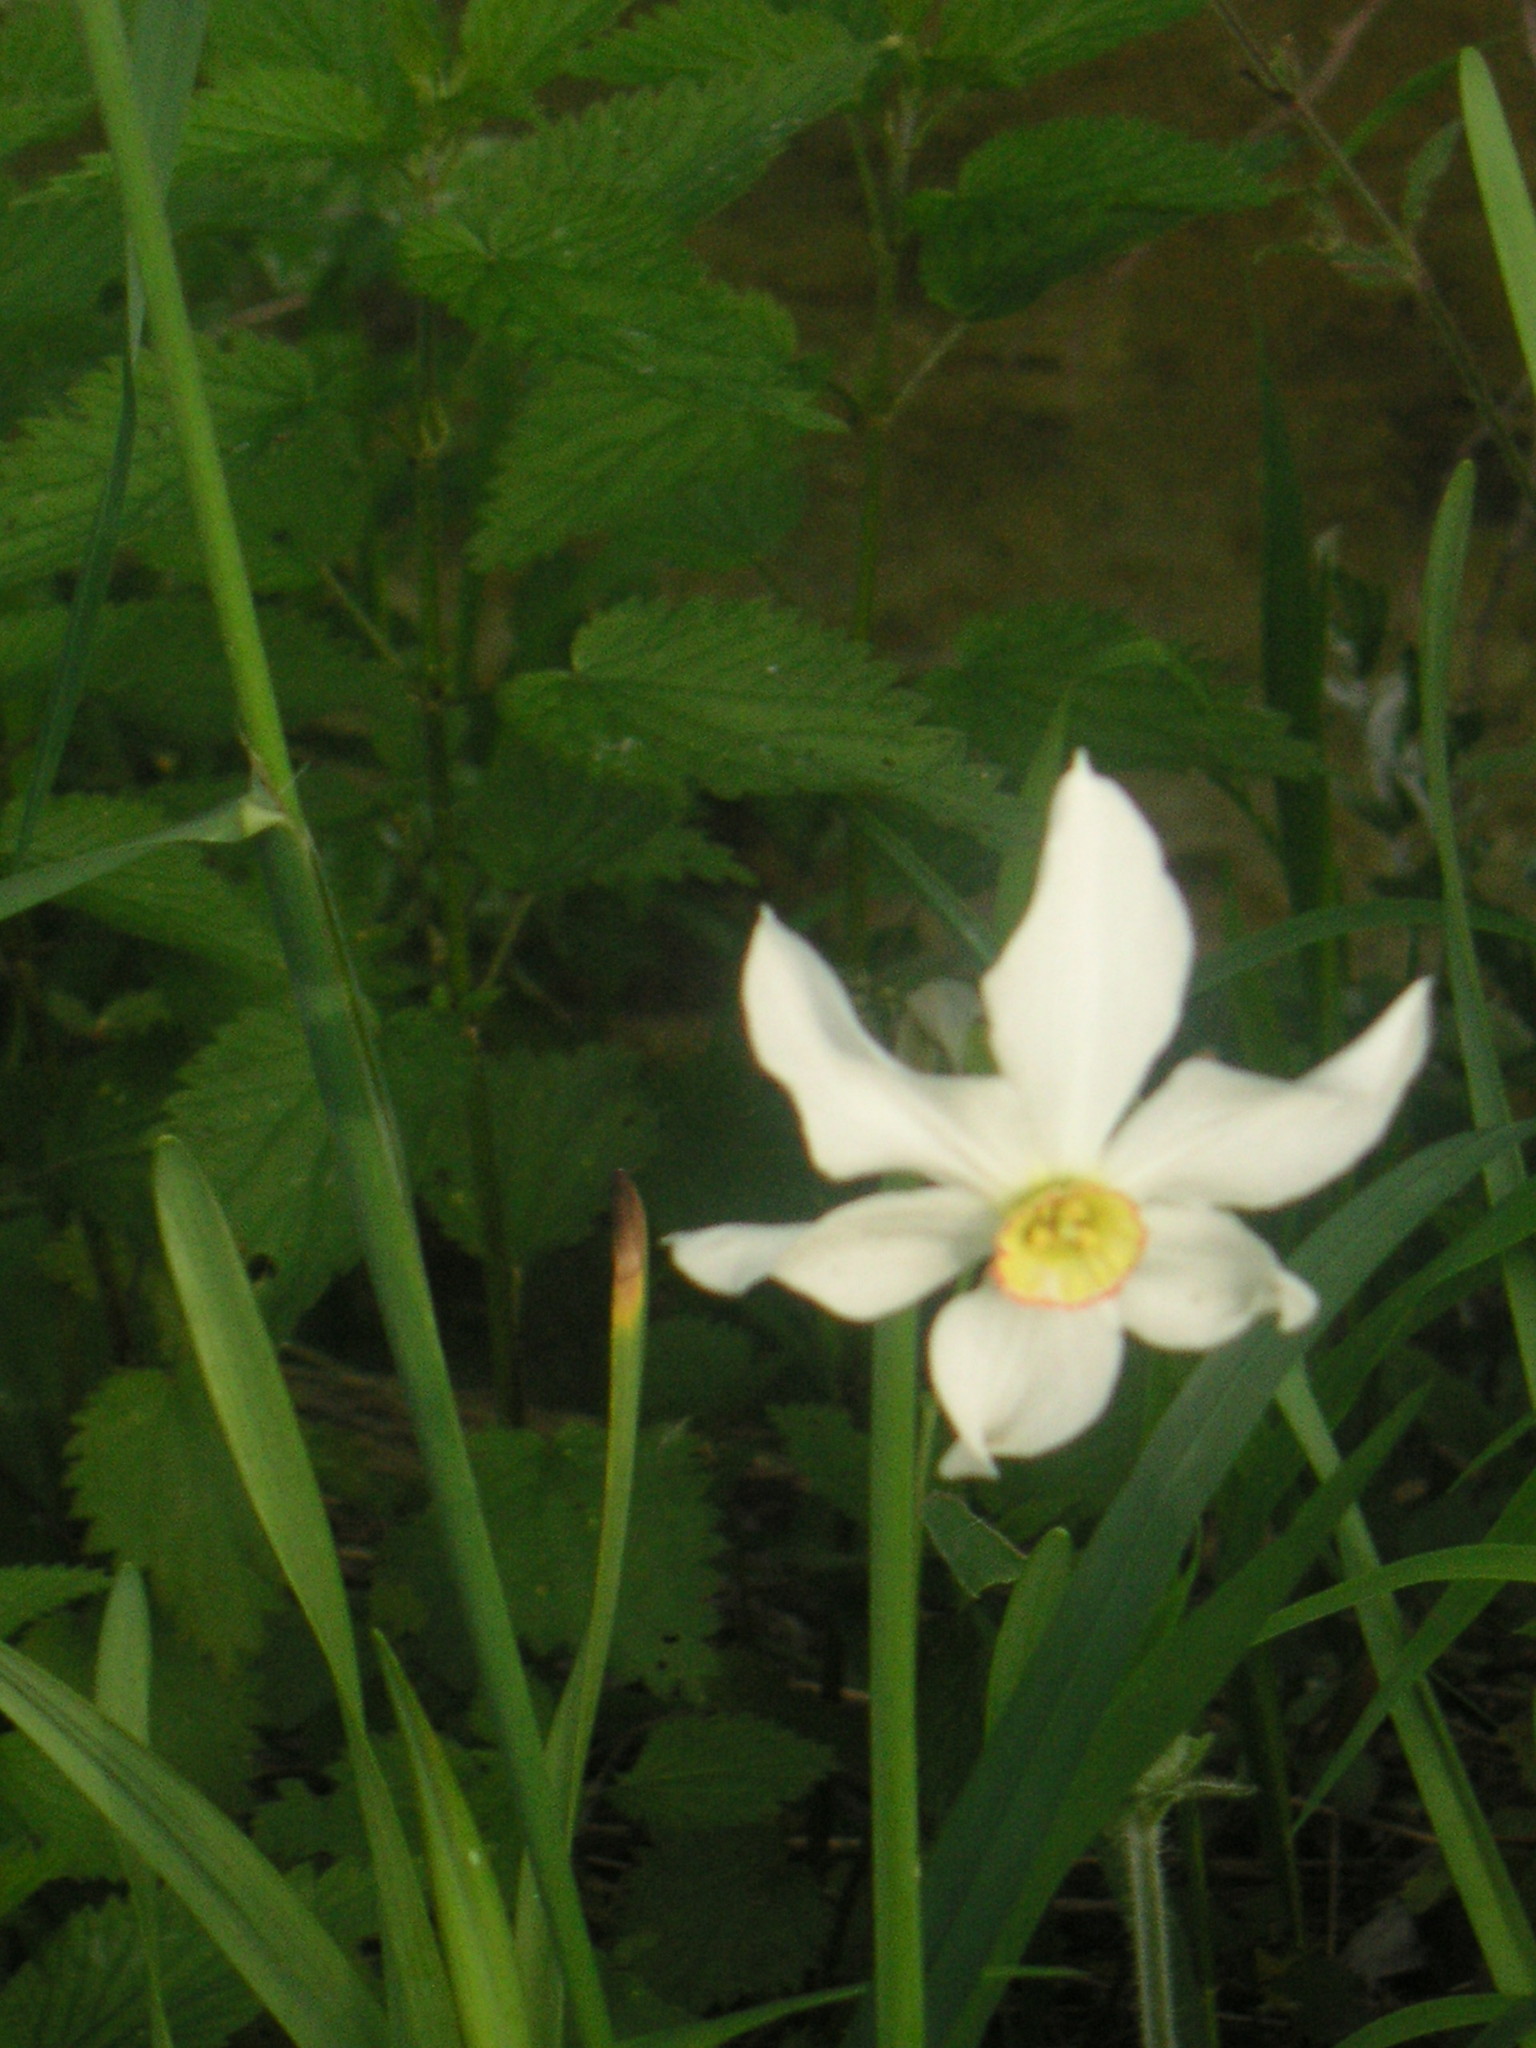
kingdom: Plantae
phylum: Tracheophyta
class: Liliopsida
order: Asparagales
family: Amaryllidaceae
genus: Narcissus
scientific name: Narcissus poeticus
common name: Pheasant's-eye daffodil
